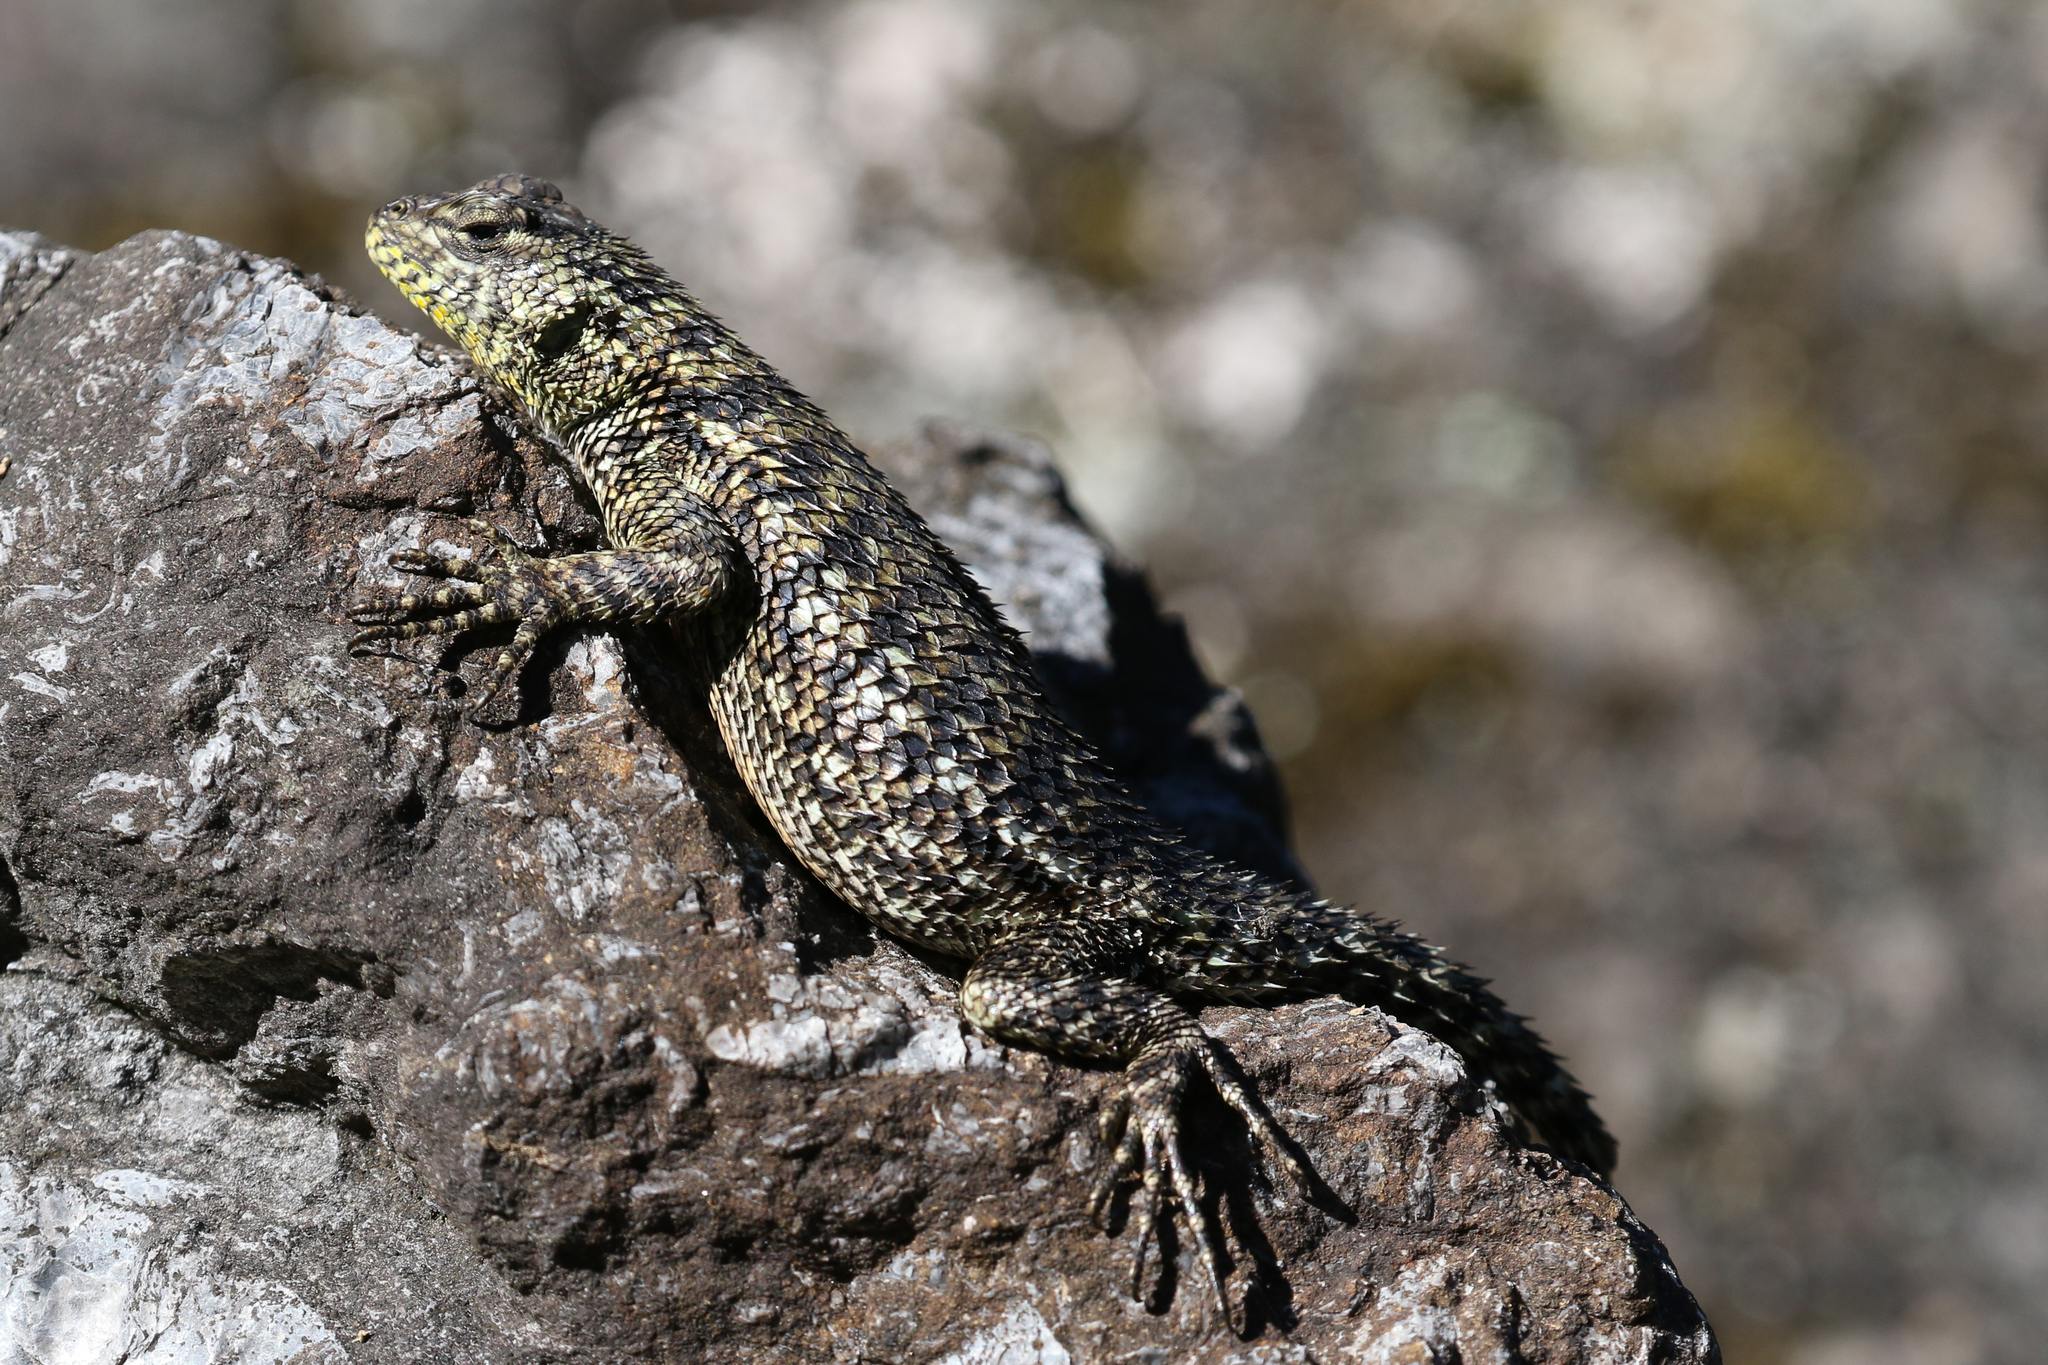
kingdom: Animalia
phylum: Chordata
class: Squamata
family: Phrynosomatidae
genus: Sceloporus
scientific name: Sceloporus malachiticus
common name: Green spiny lizard
